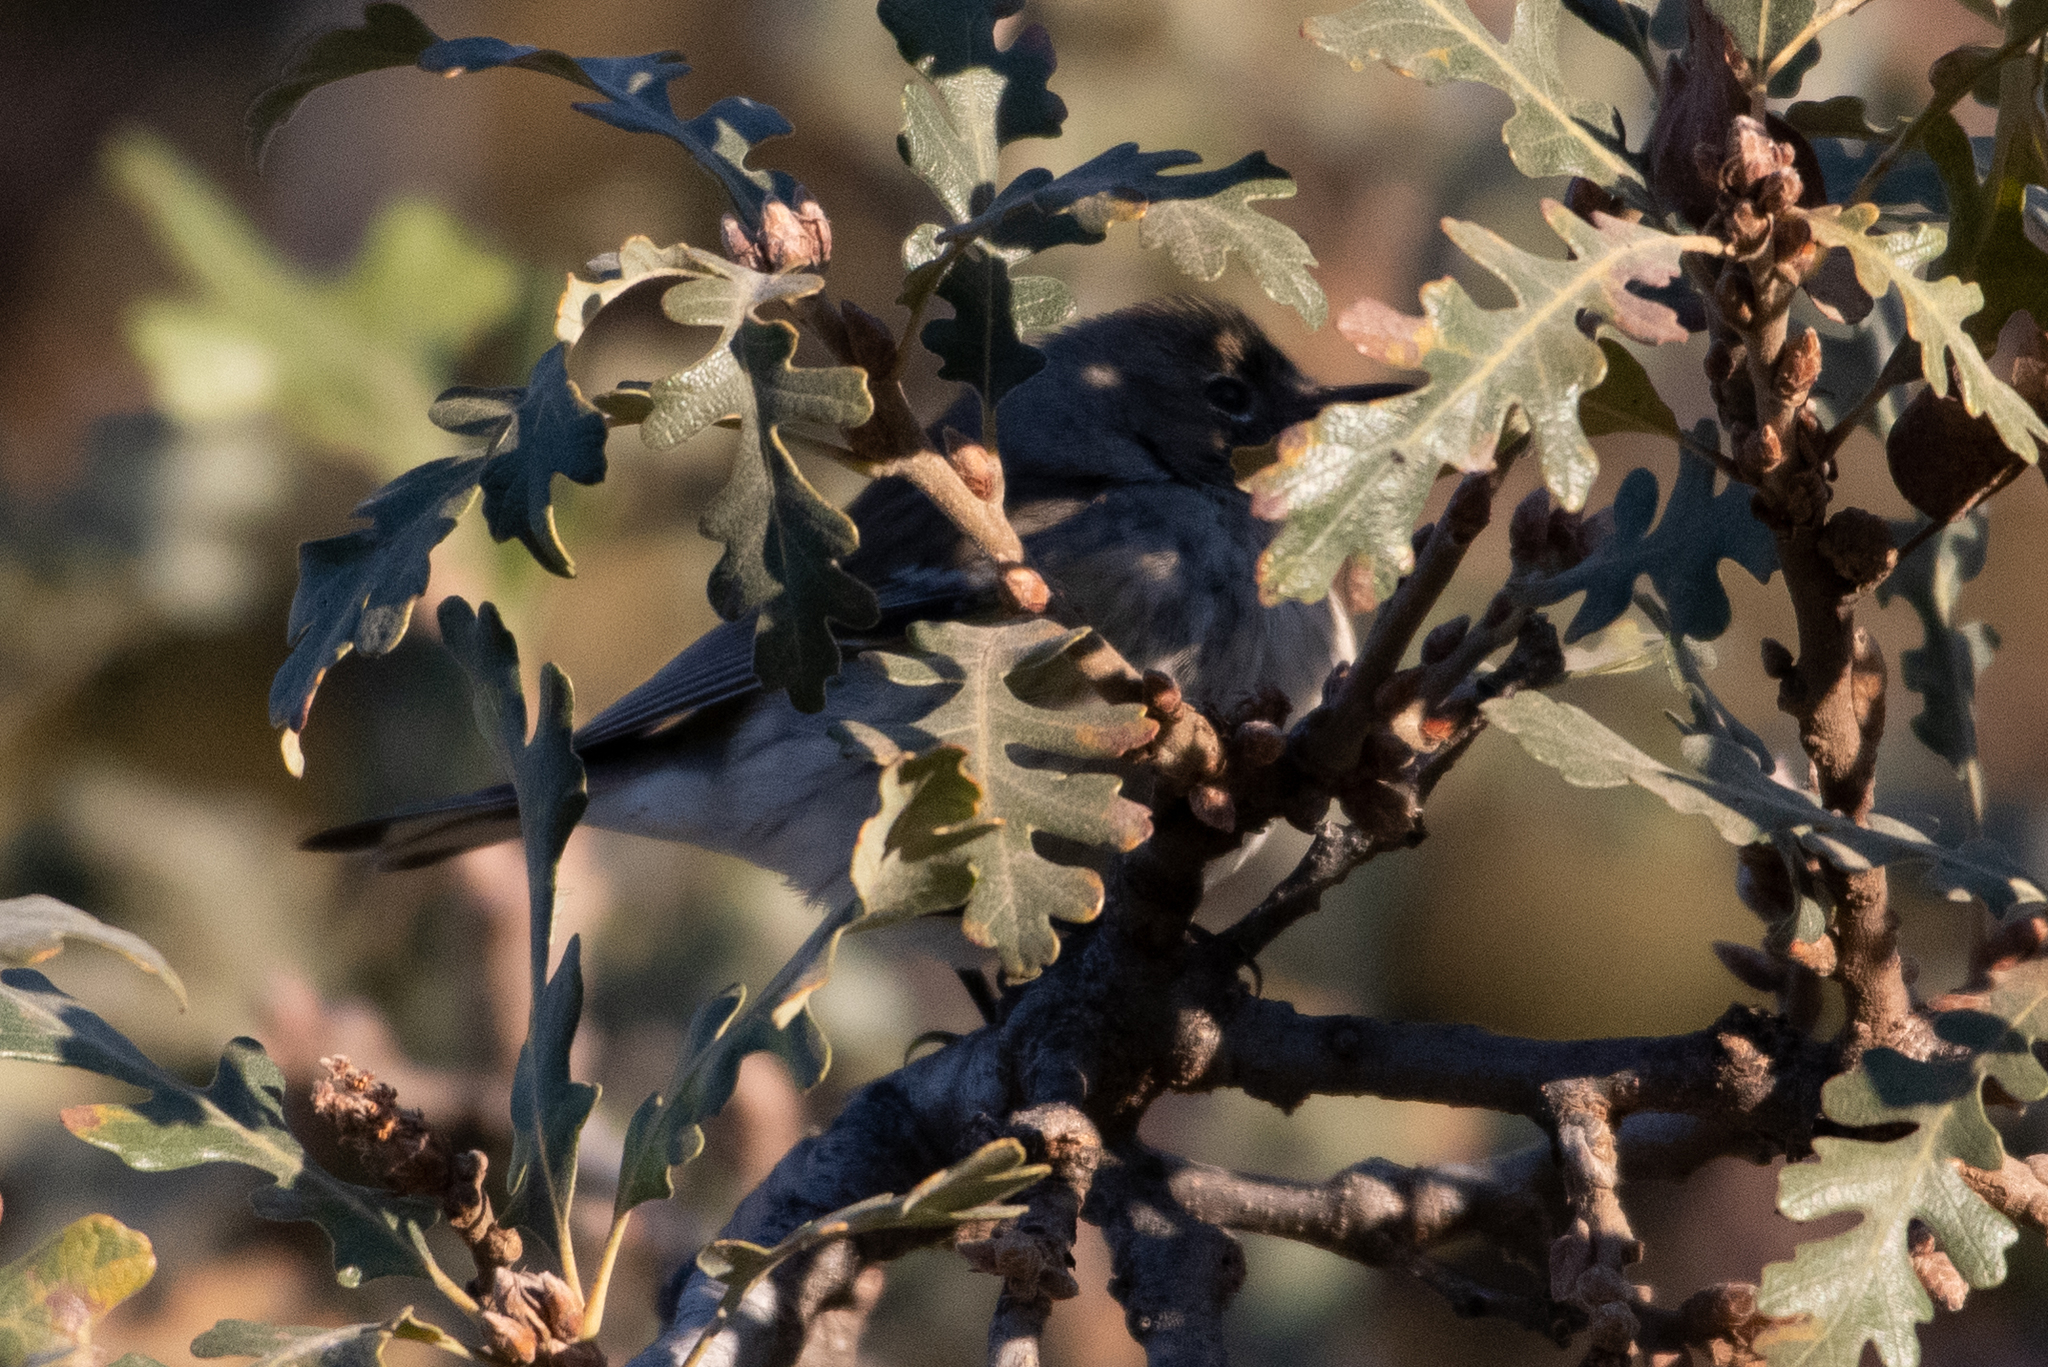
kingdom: Animalia
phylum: Chordata
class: Aves
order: Passeriformes
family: Parulidae
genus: Setophaga
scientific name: Setophaga coronata
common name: Myrtle warbler
